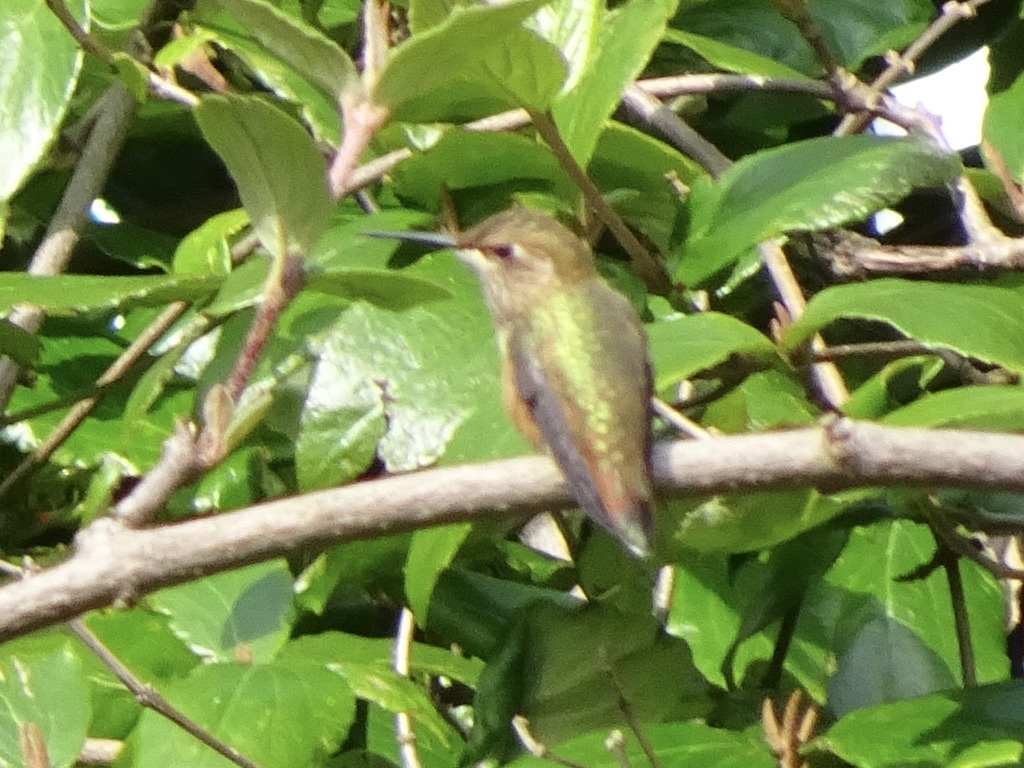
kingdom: Animalia
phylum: Chordata
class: Aves
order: Apodiformes
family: Trochilidae
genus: Selasphorus
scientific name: Selasphorus rufus
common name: Rufous hummingbird
